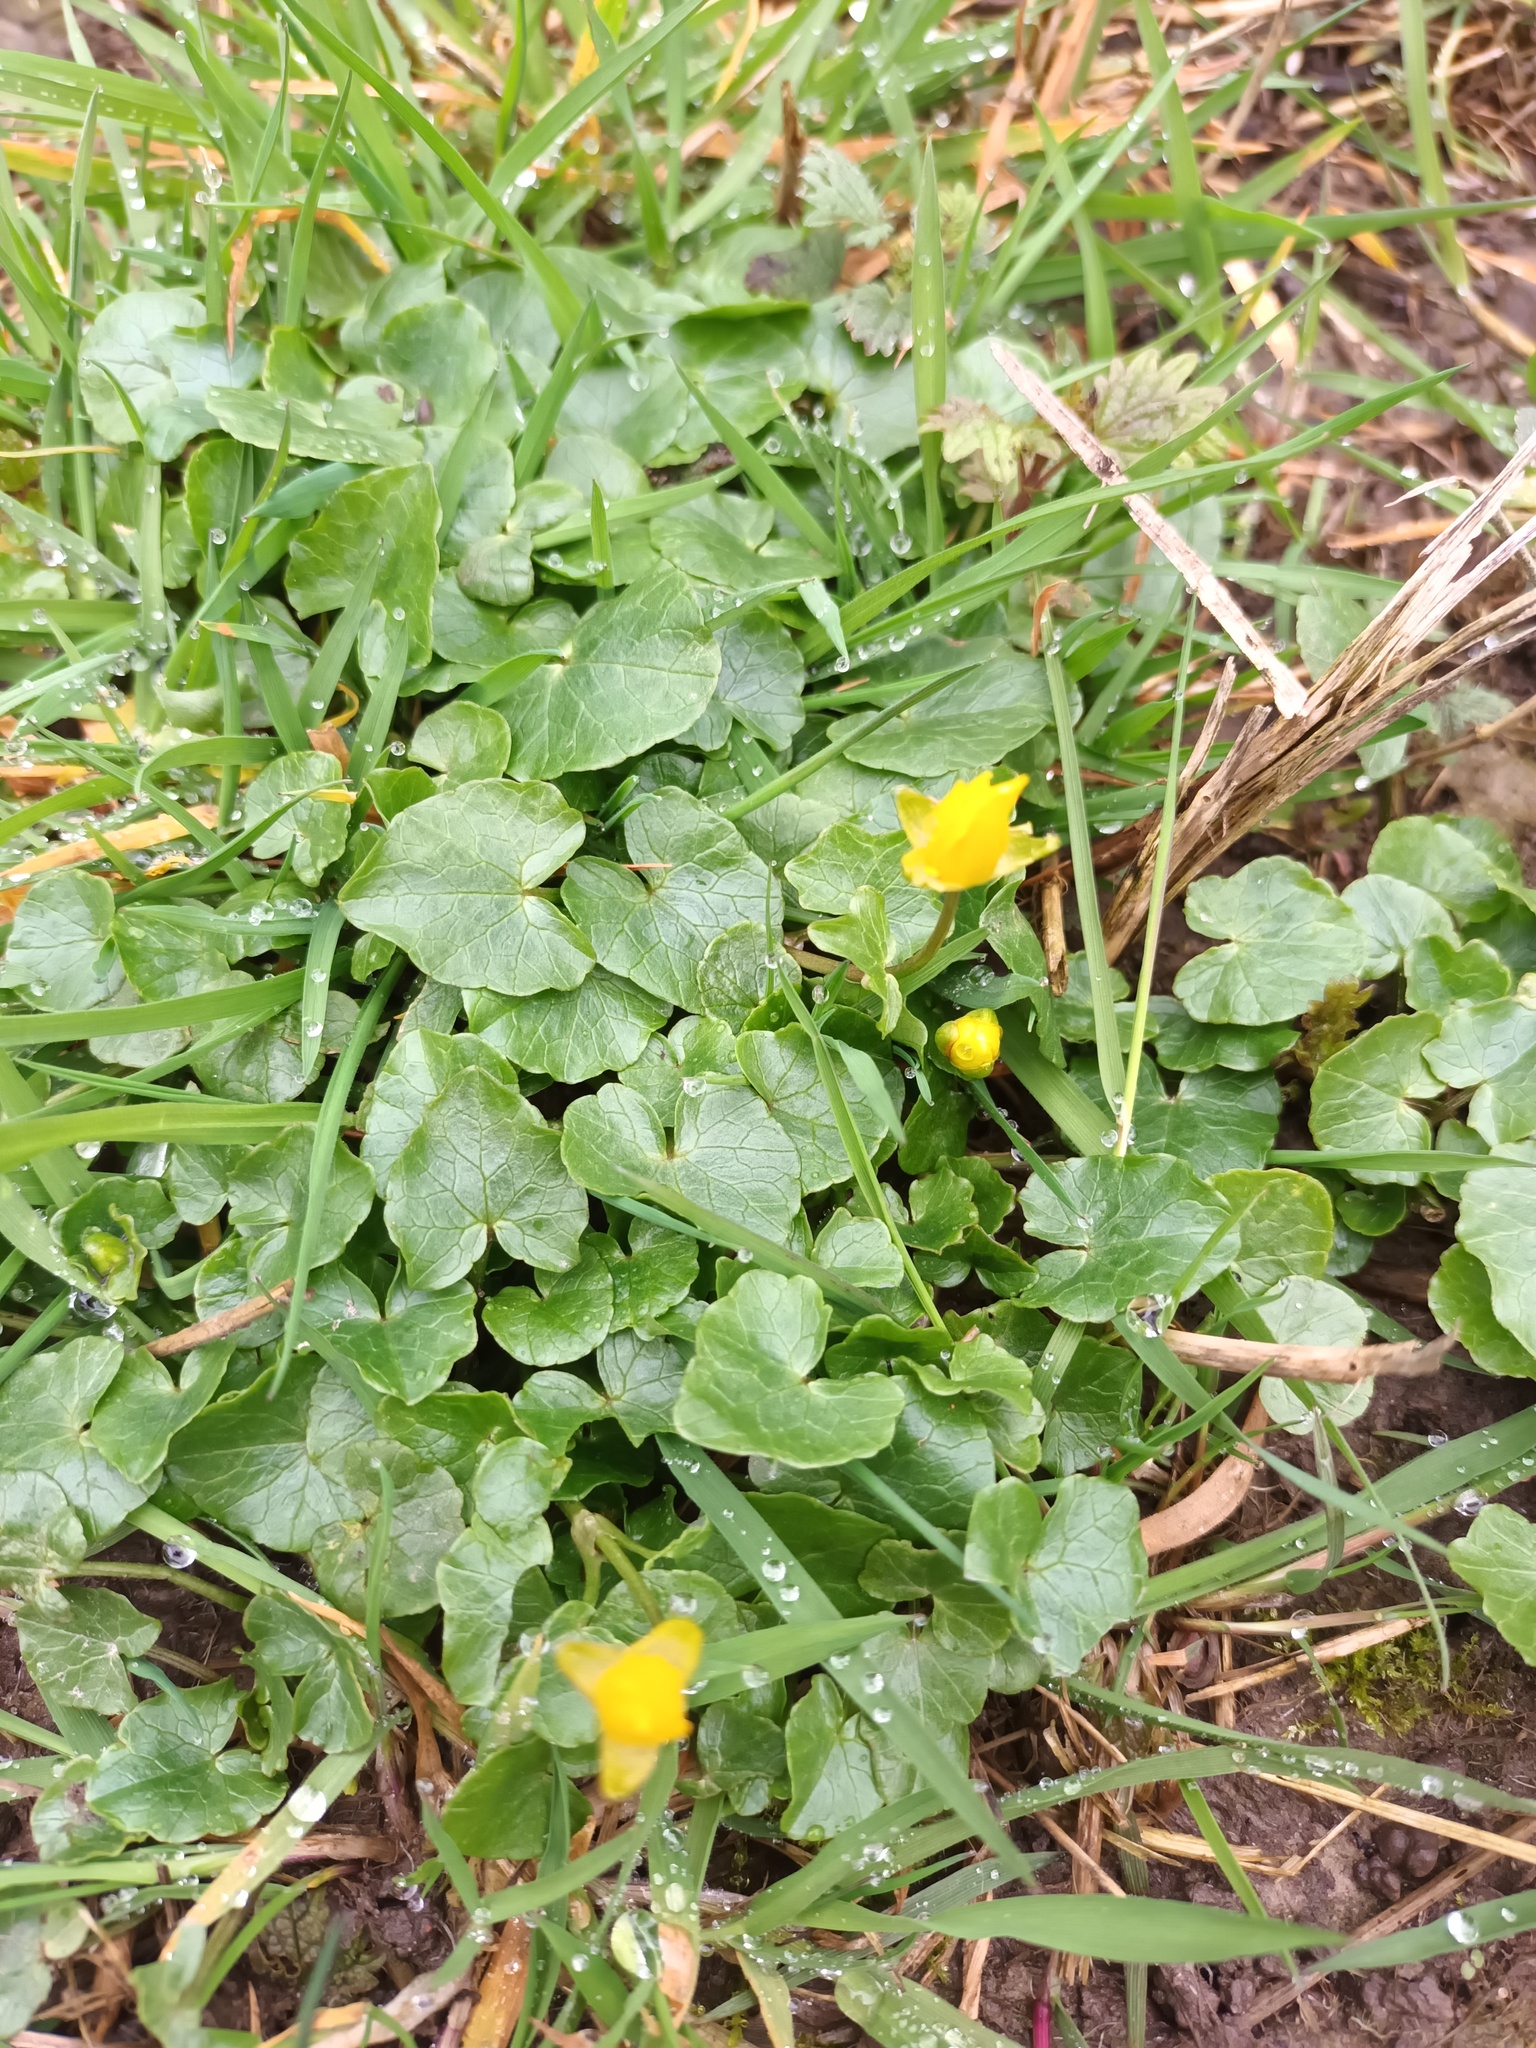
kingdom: Plantae
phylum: Tracheophyta
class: Magnoliopsida
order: Ranunculales
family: Ranunculaceae
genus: Ficaria
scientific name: Ficaria verna
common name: Lesser celandine
